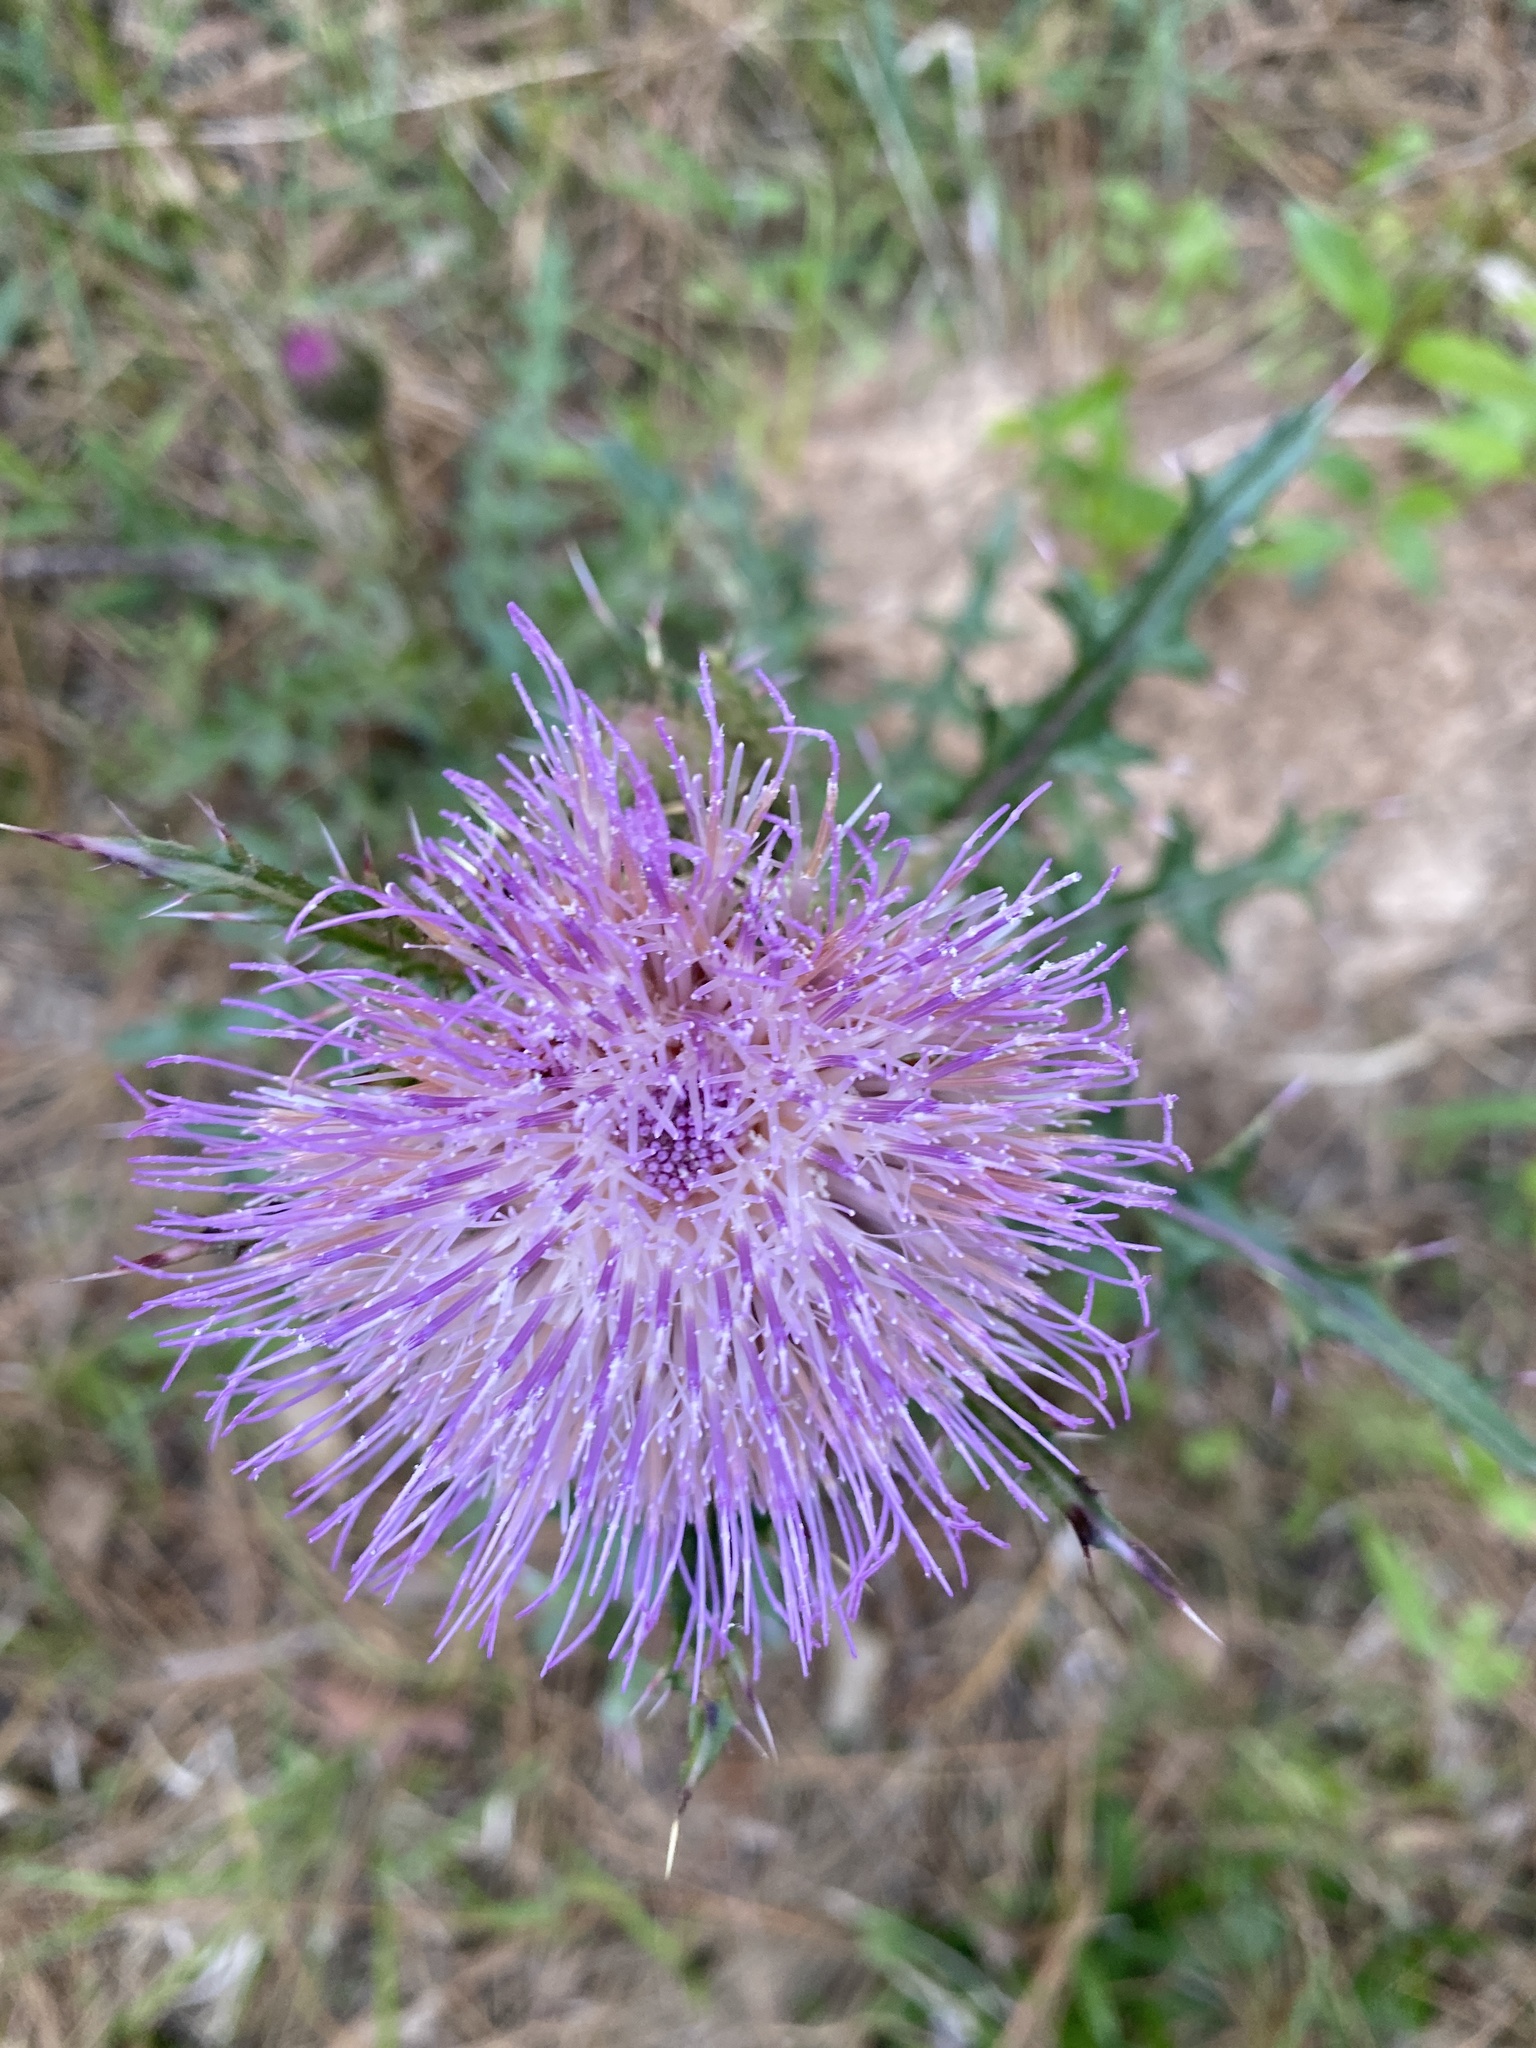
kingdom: Plantae
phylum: Tracheophyta
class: Magnoliopsida
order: Asterales
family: Asteraceae
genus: Cirsium
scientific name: Cirsium horridulum
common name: Bristly thistle
